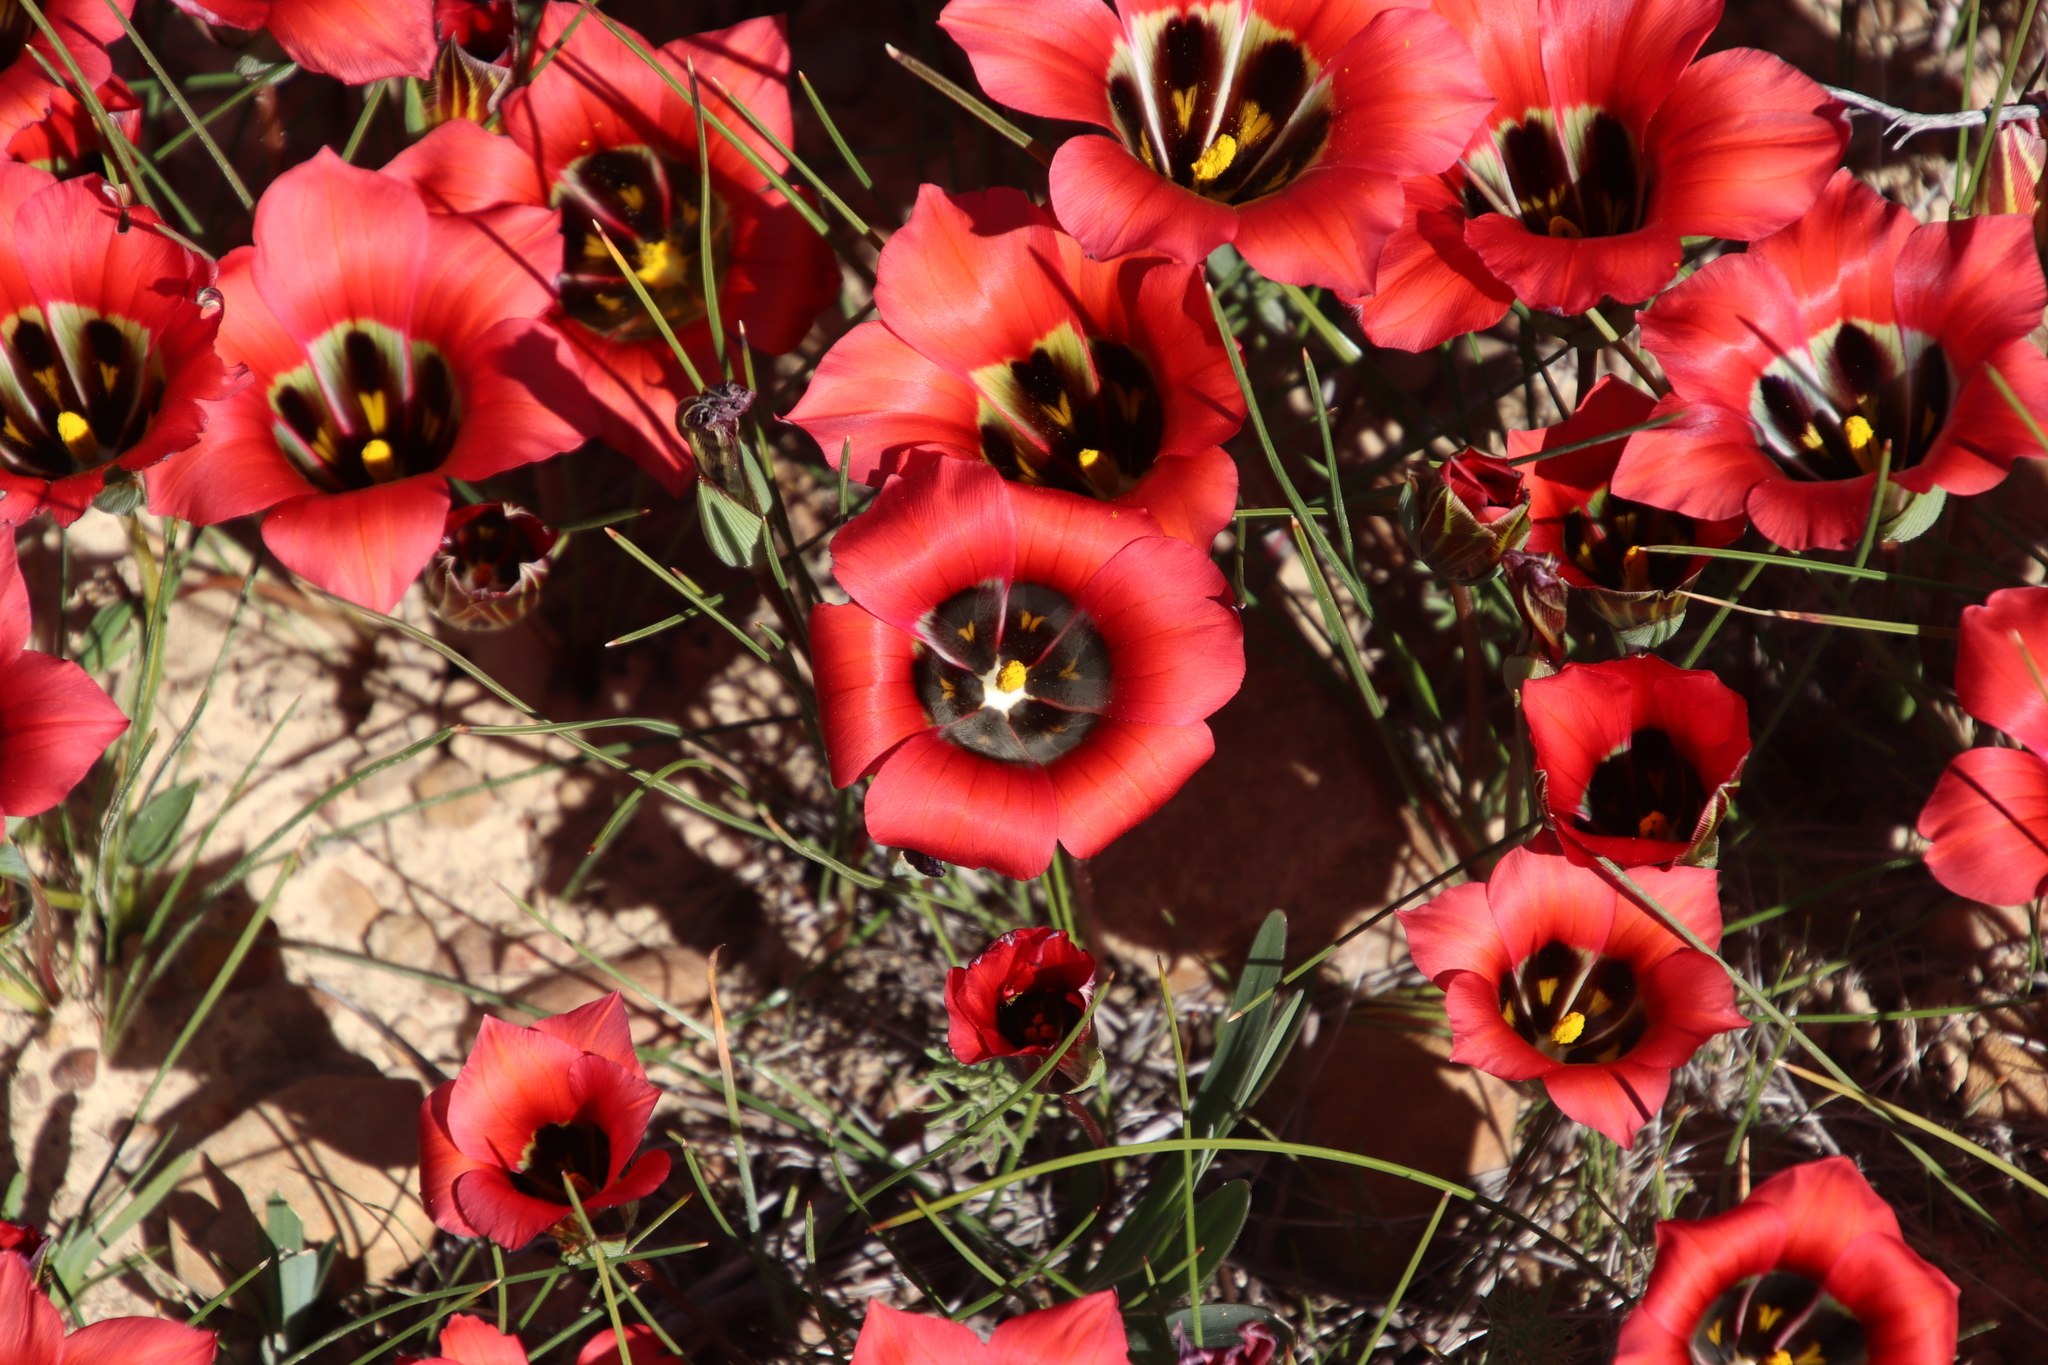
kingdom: Plantae
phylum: Tracheophyta
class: Liliopsida
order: Asparagales
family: Iridaceae
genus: Romulea
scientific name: Romulea sabulosa
